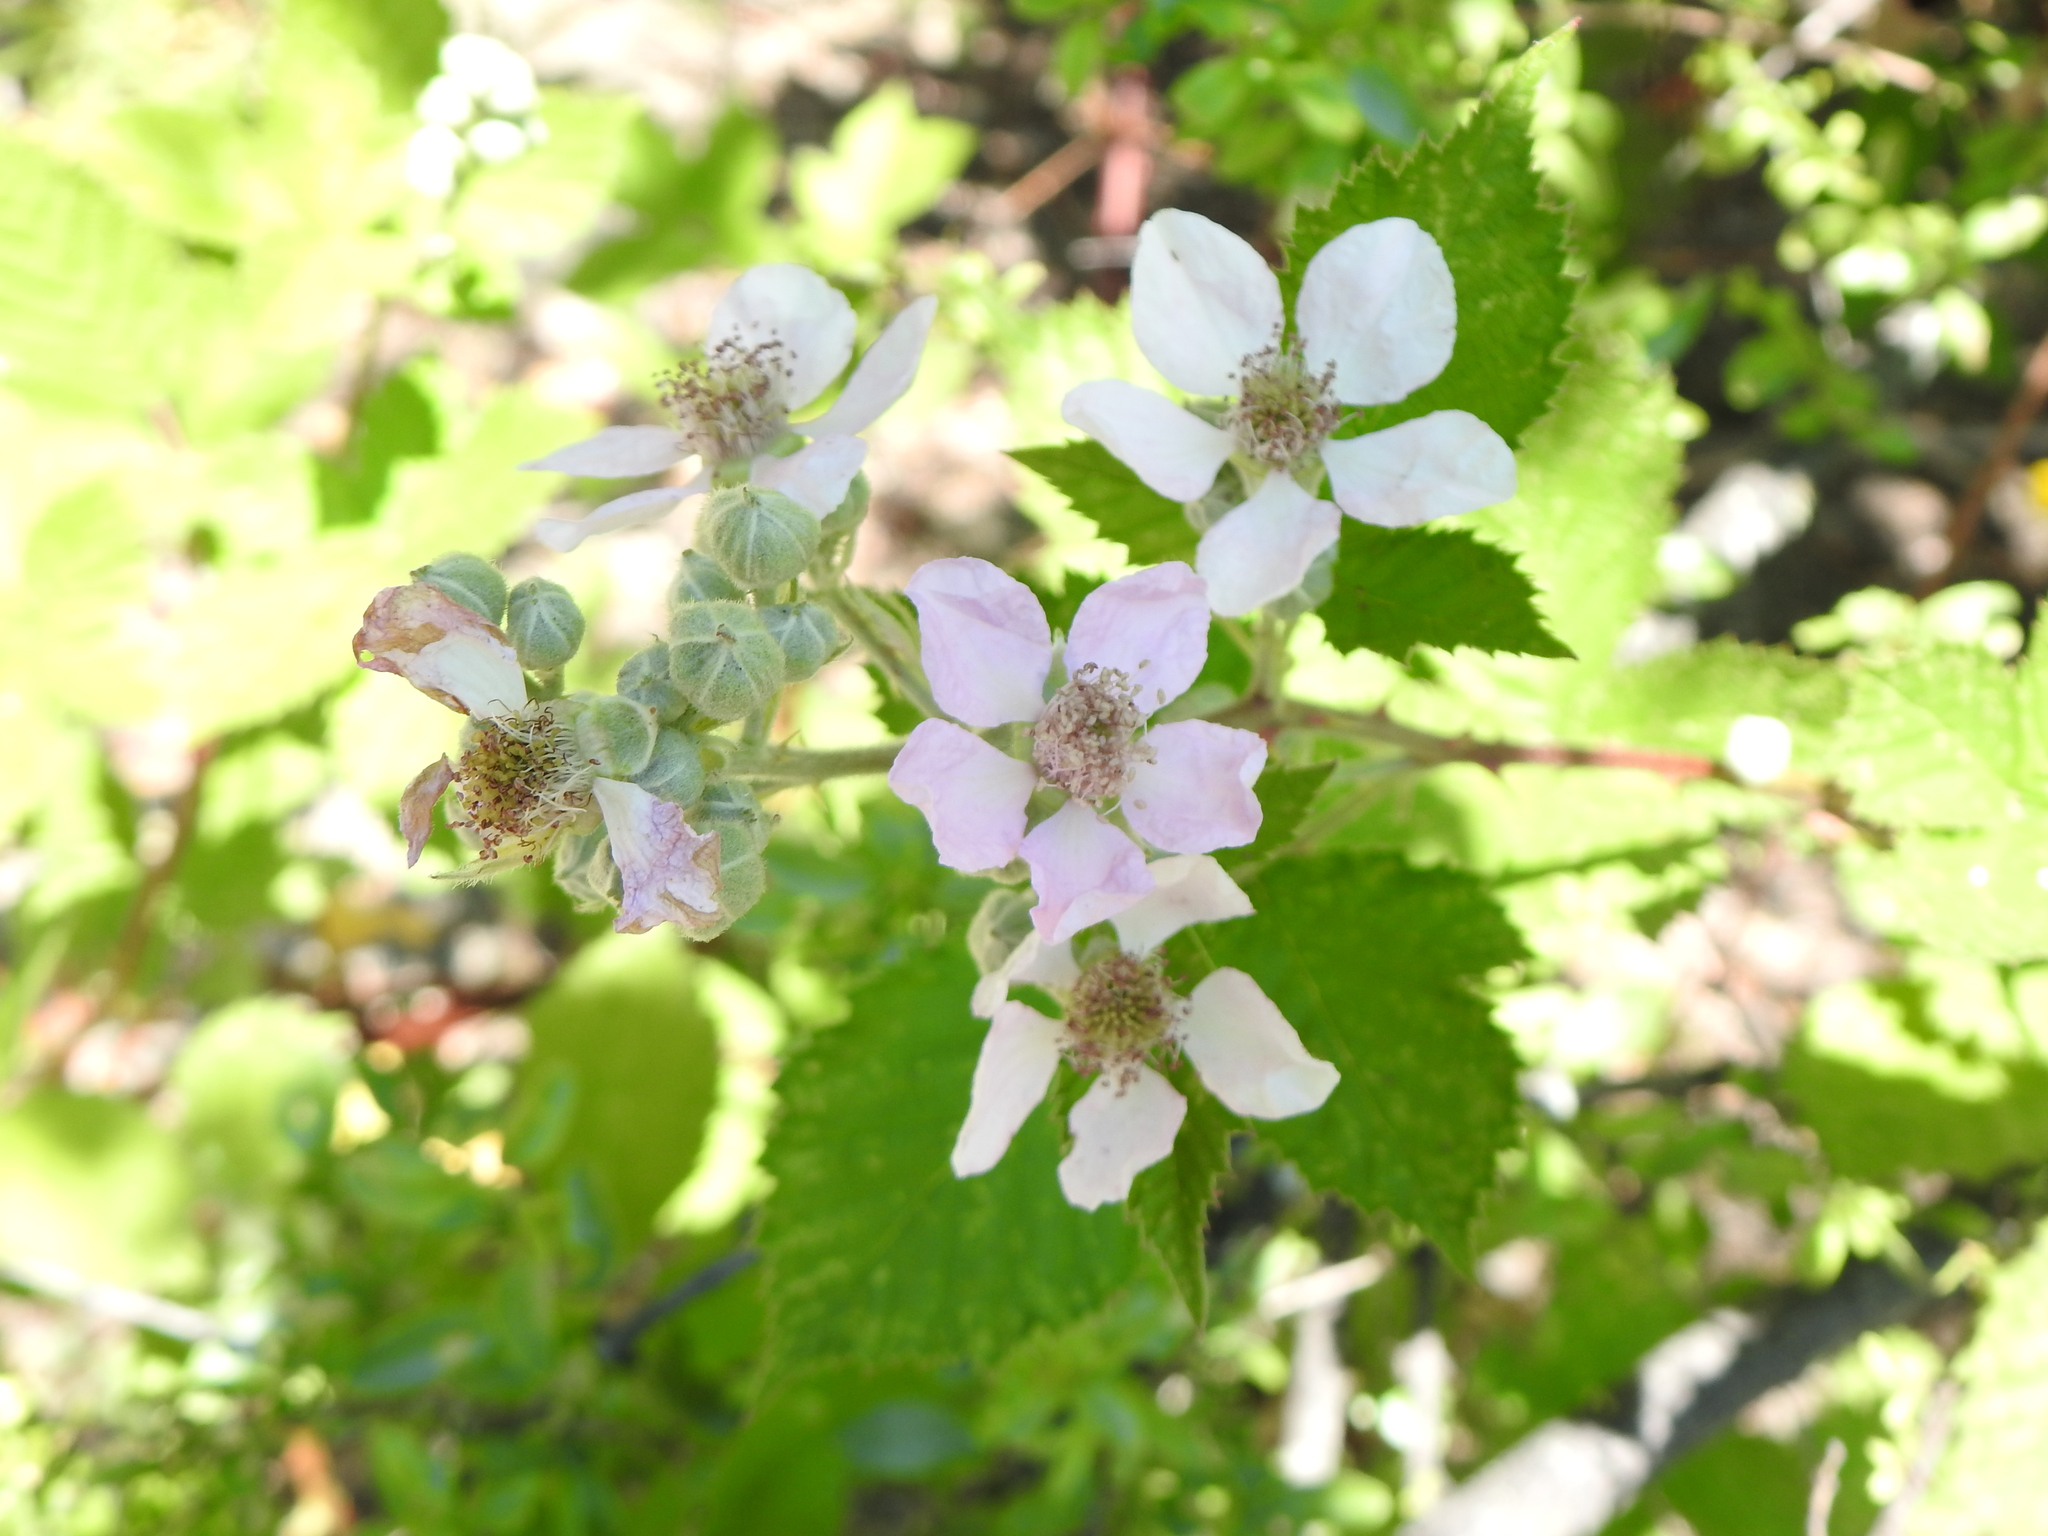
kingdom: Plantae
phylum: Tracheophyta
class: Magnoliopsida
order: Rosales
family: Rosaceae
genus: Rubus
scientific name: Rubus ulmifolius
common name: Elmleaf blackberry
